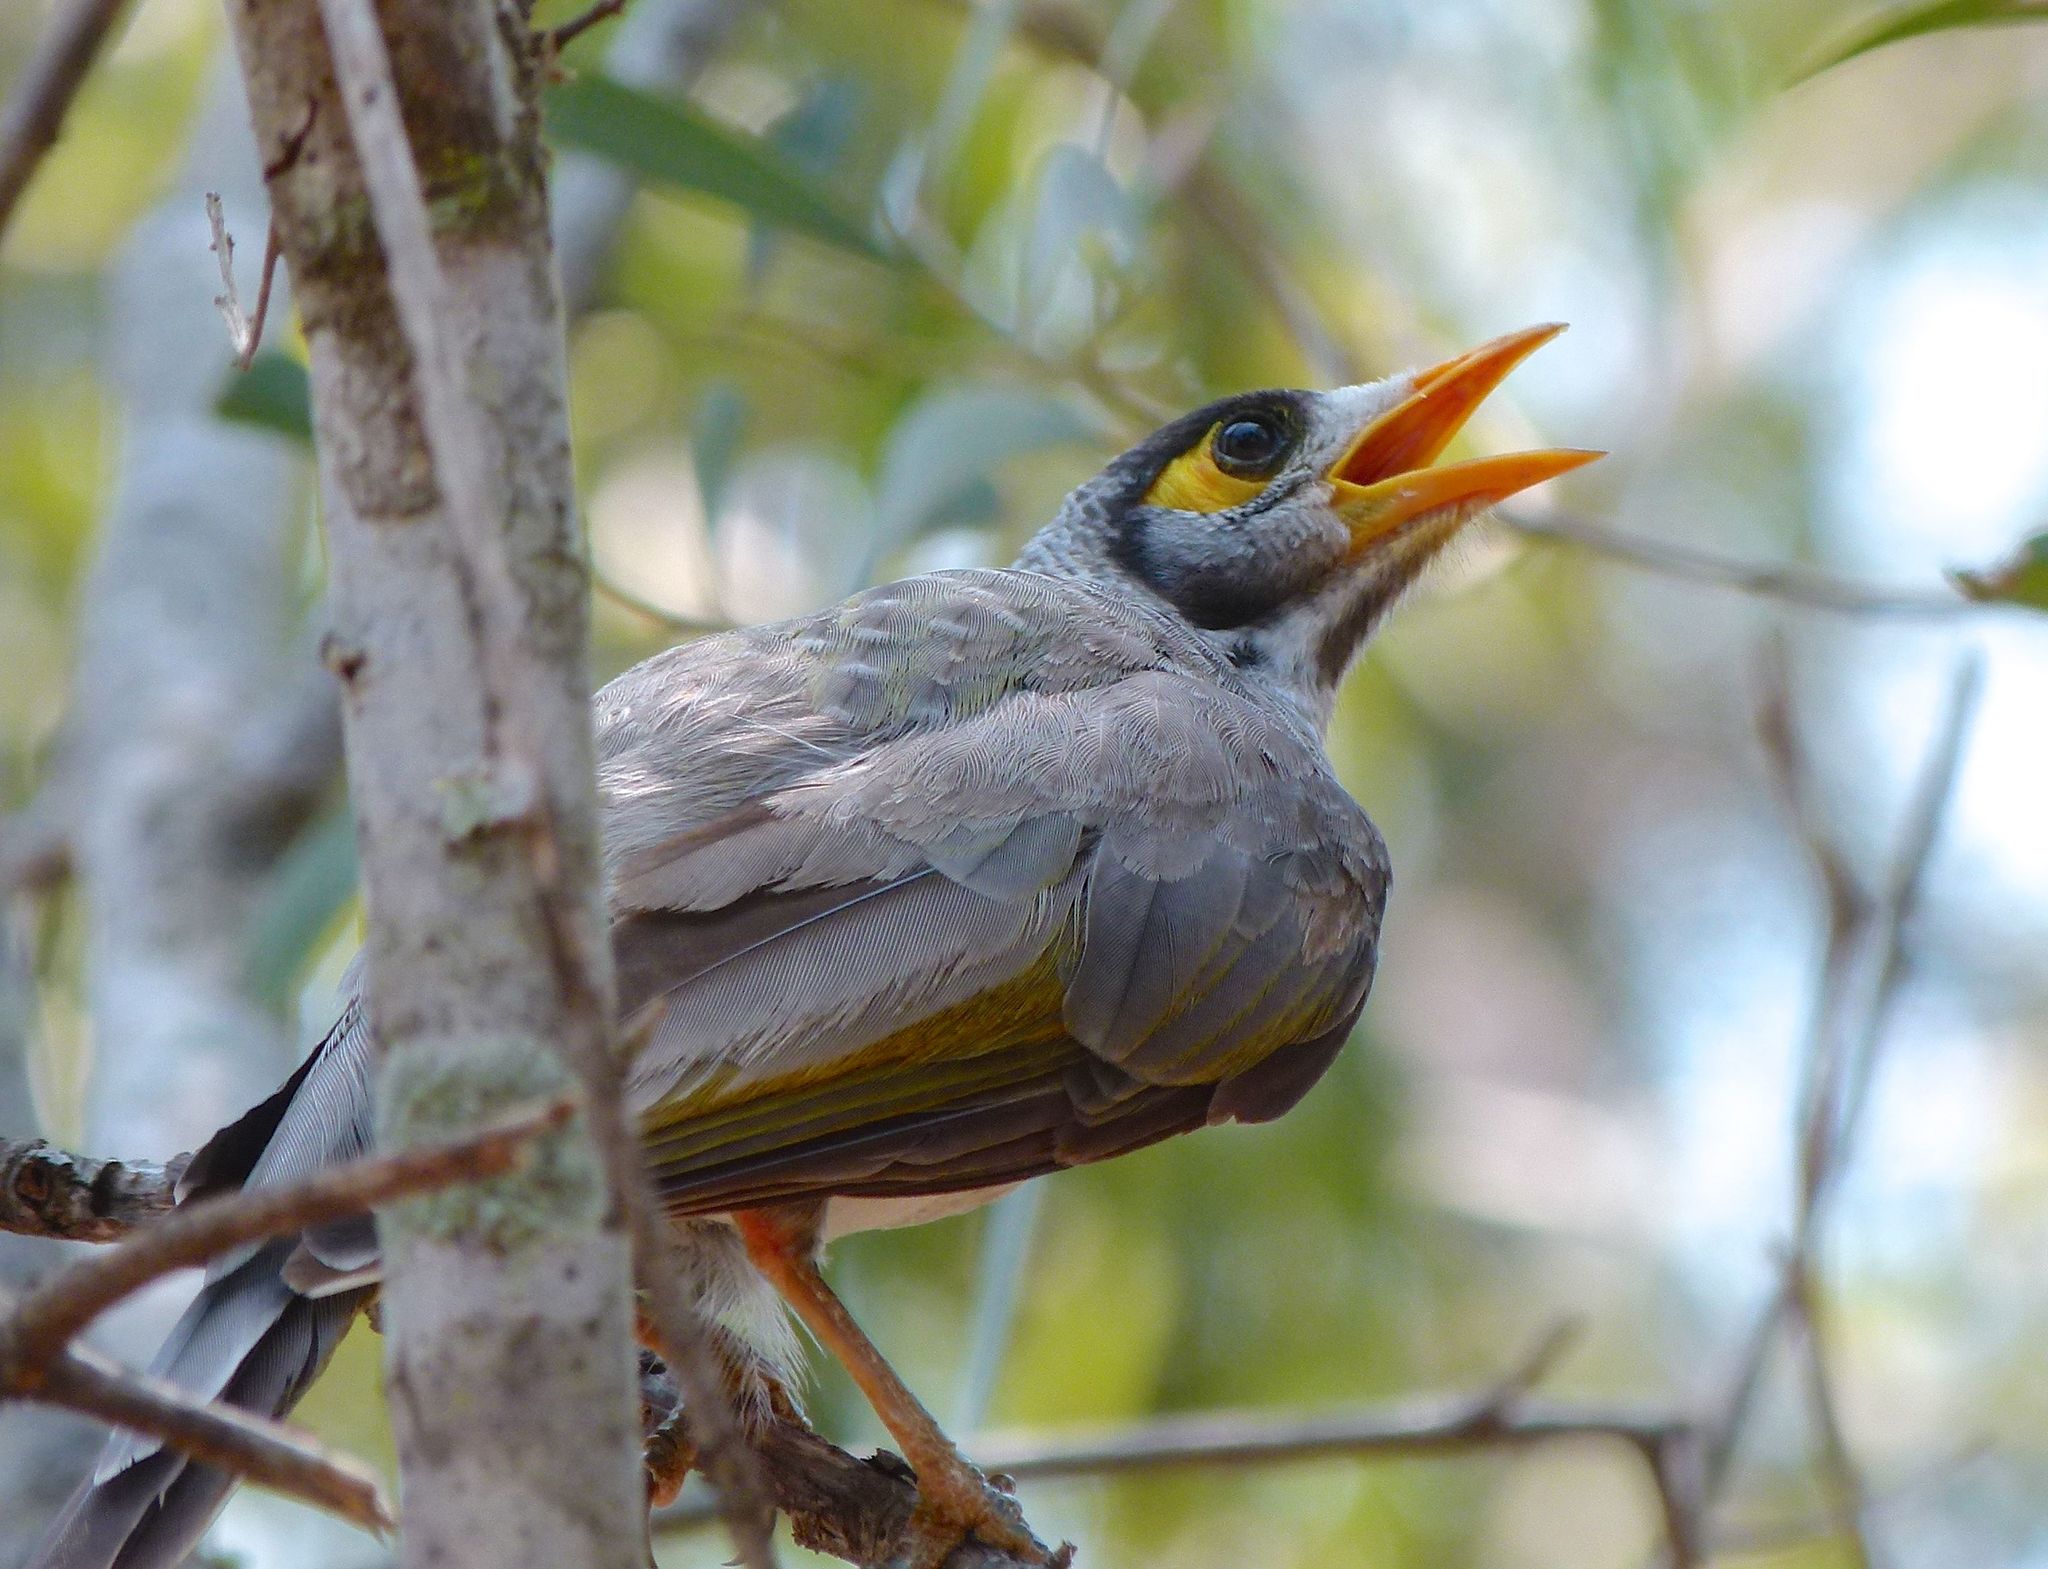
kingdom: Animalia
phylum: Chordata
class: Aves
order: Passeriformes
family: Meliphagidae
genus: Manorina
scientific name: Manorina melanocephala
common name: Noisy miner
